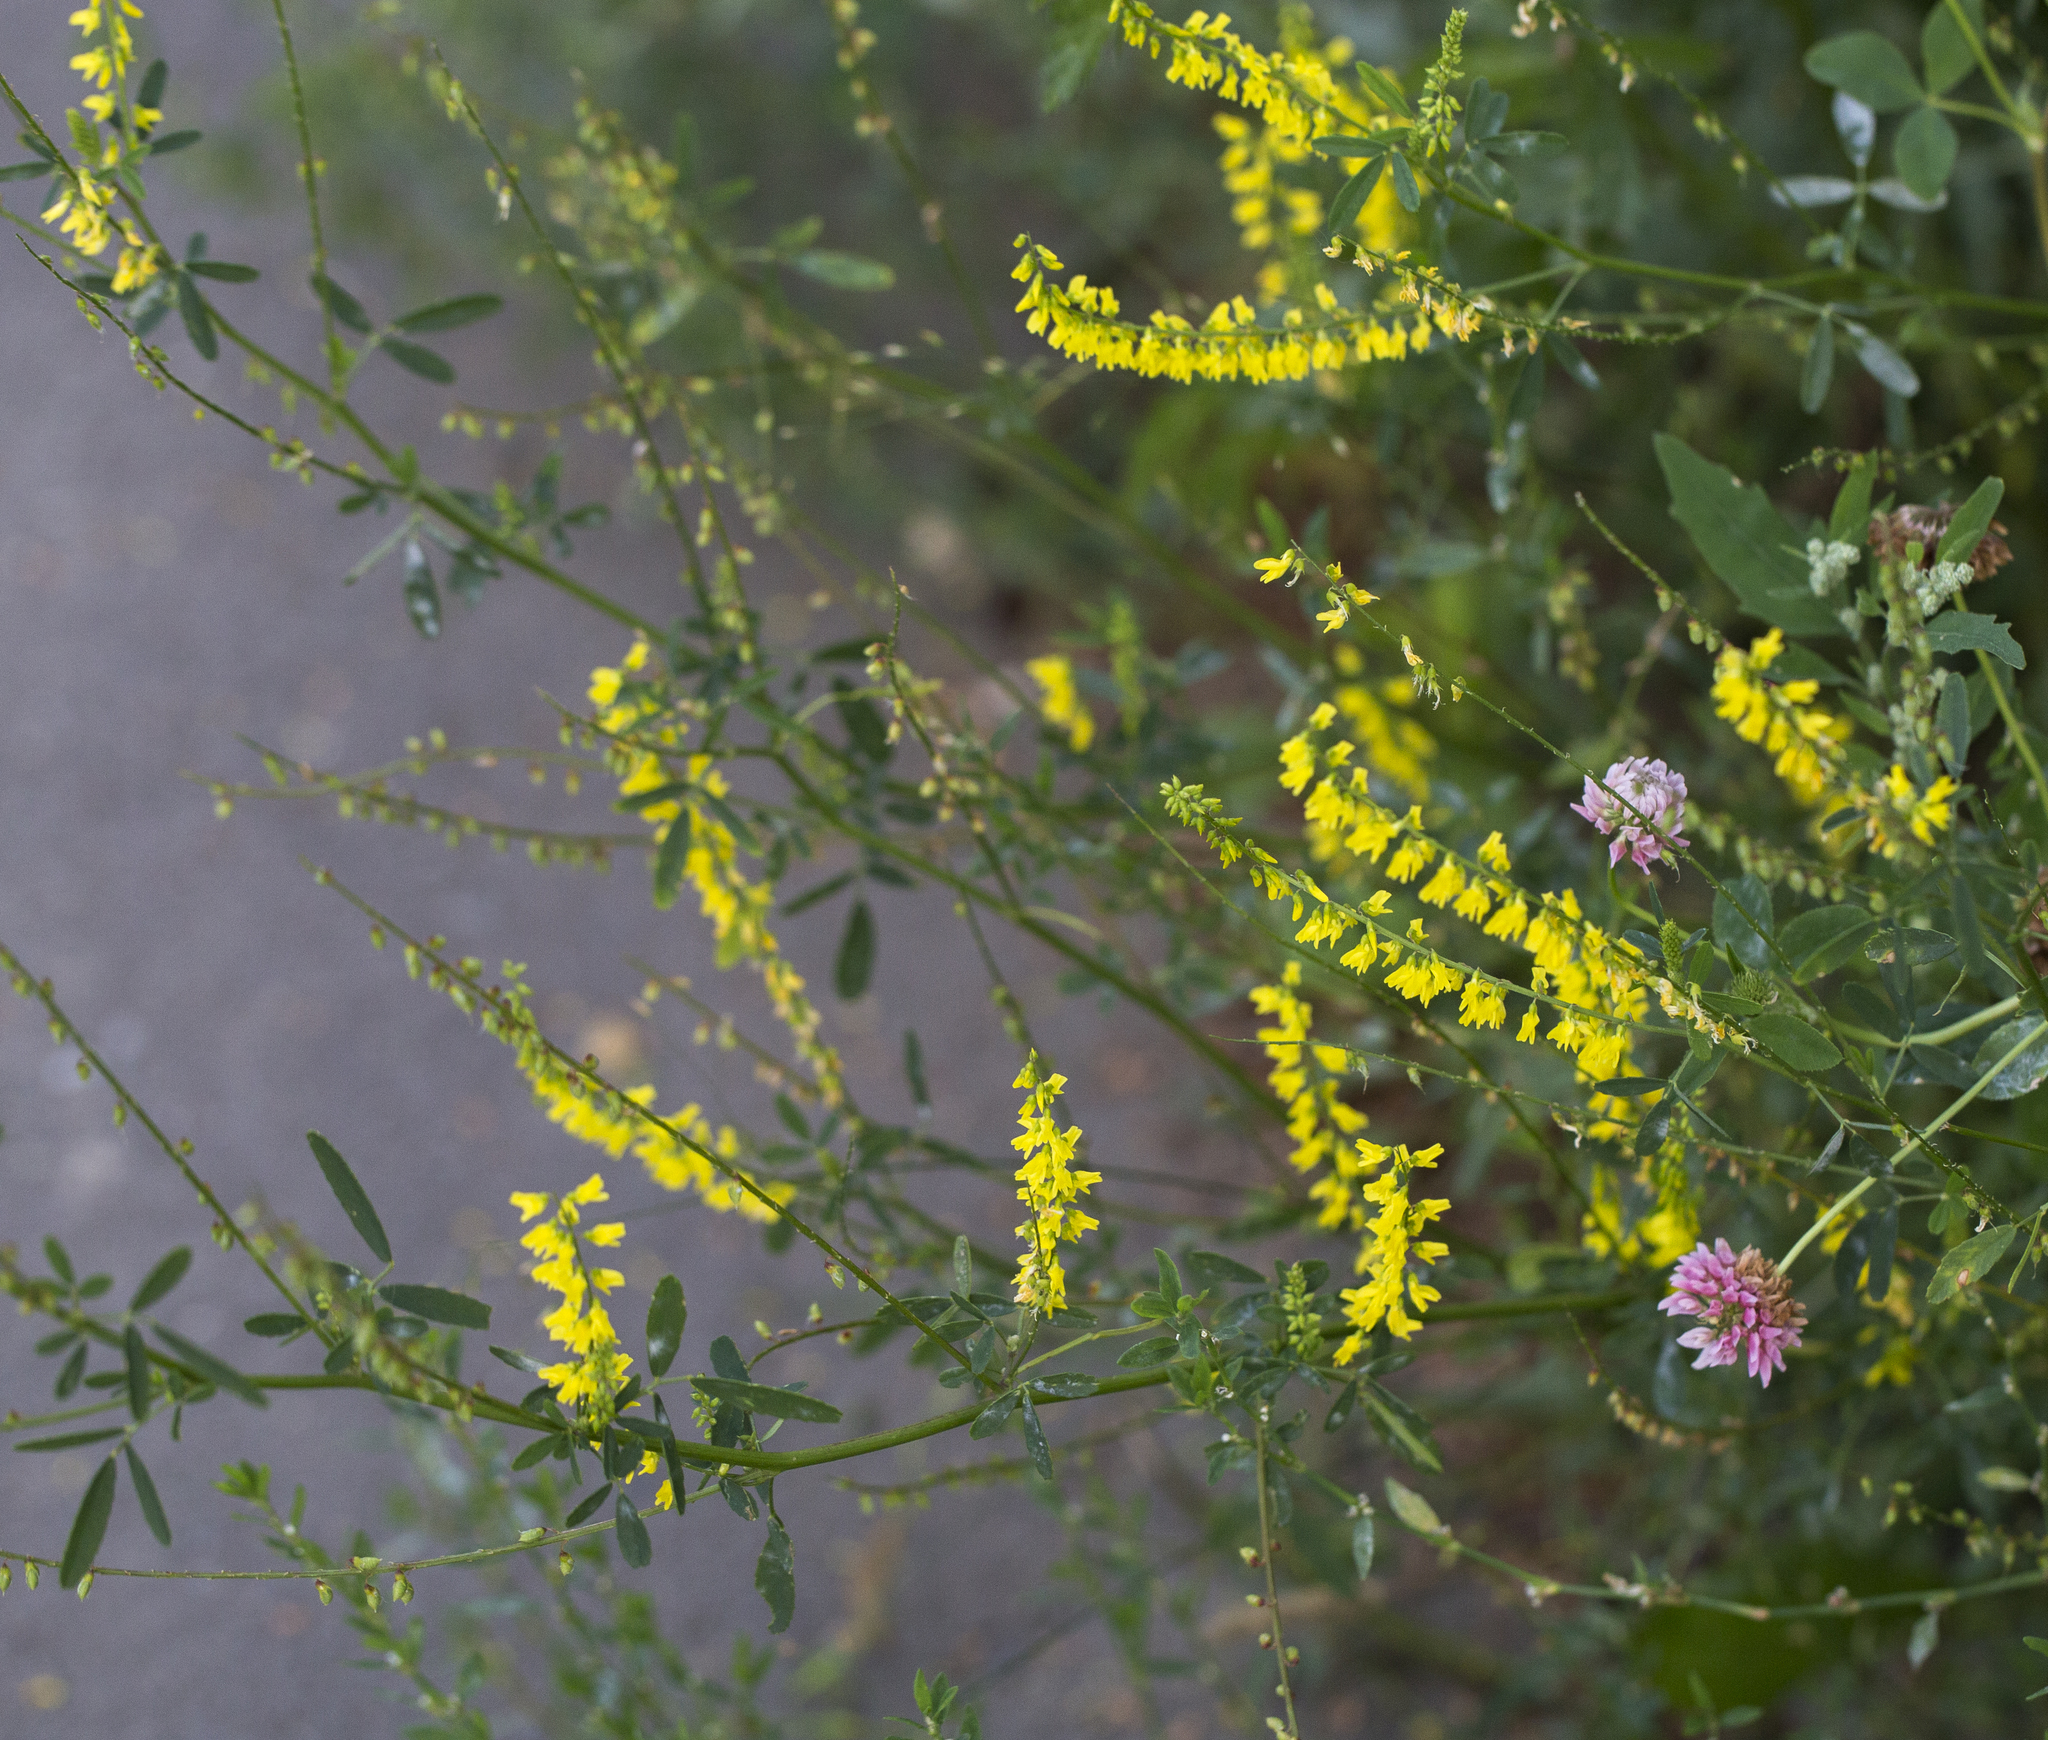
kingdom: Plantae
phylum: Tracheophyta
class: Magnoliopsida
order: Fabales
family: Fabaceae
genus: Melilotus
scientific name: Melilotus officinalis
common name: Sweetclover
